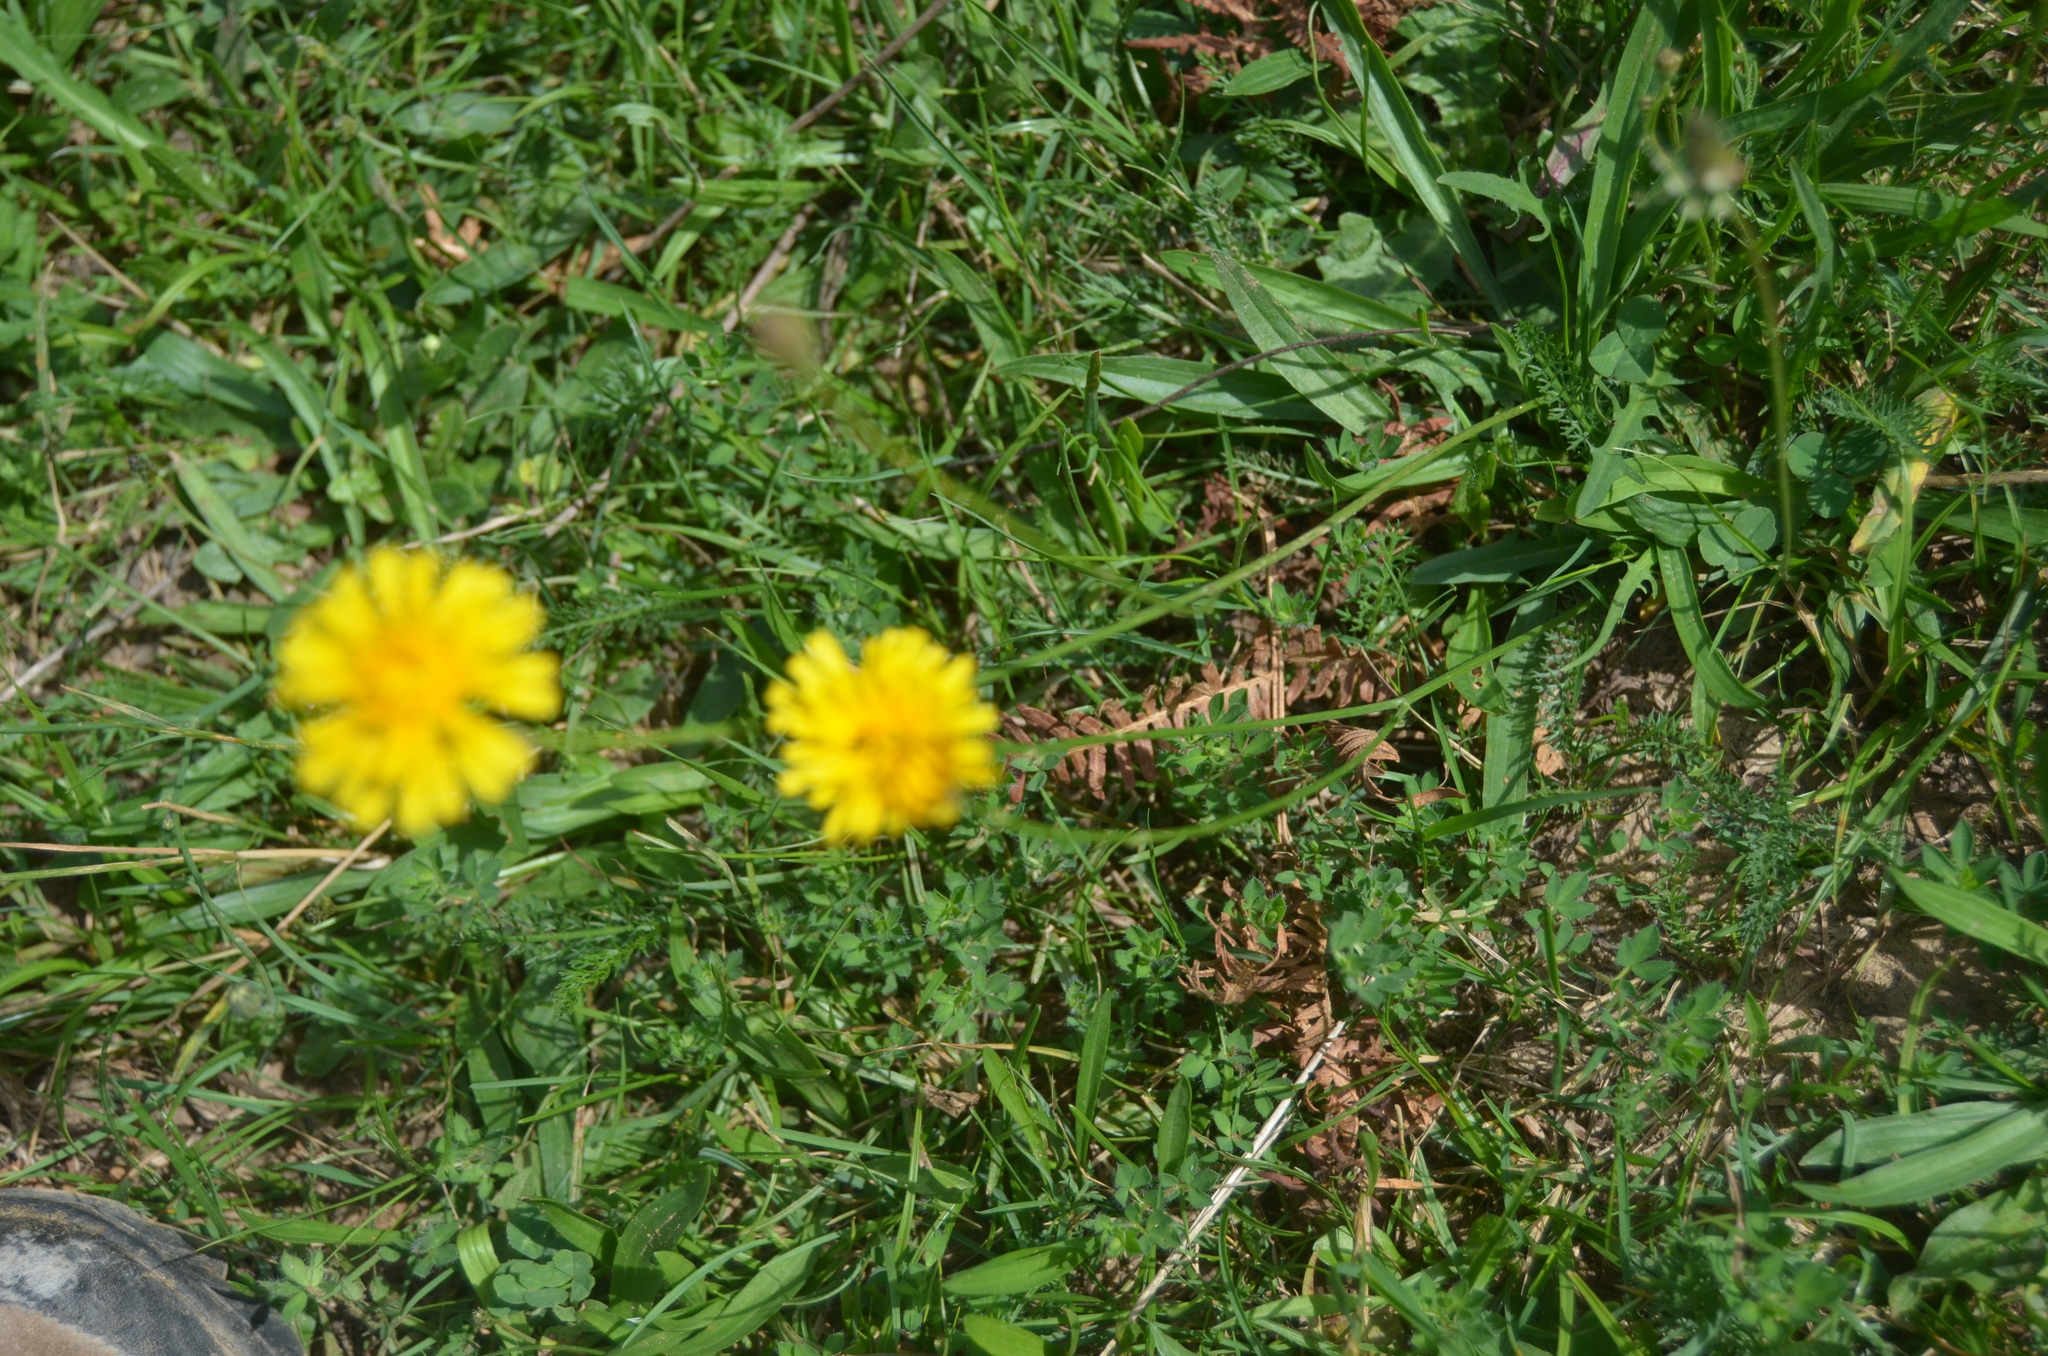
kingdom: Plantae
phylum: Tracheophyta
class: Magnoliopsida
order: Asterales
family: Asteraceae
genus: Scorzoneroides
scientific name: Scorzoneroides autumnalis
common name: Autumn hawkbit
